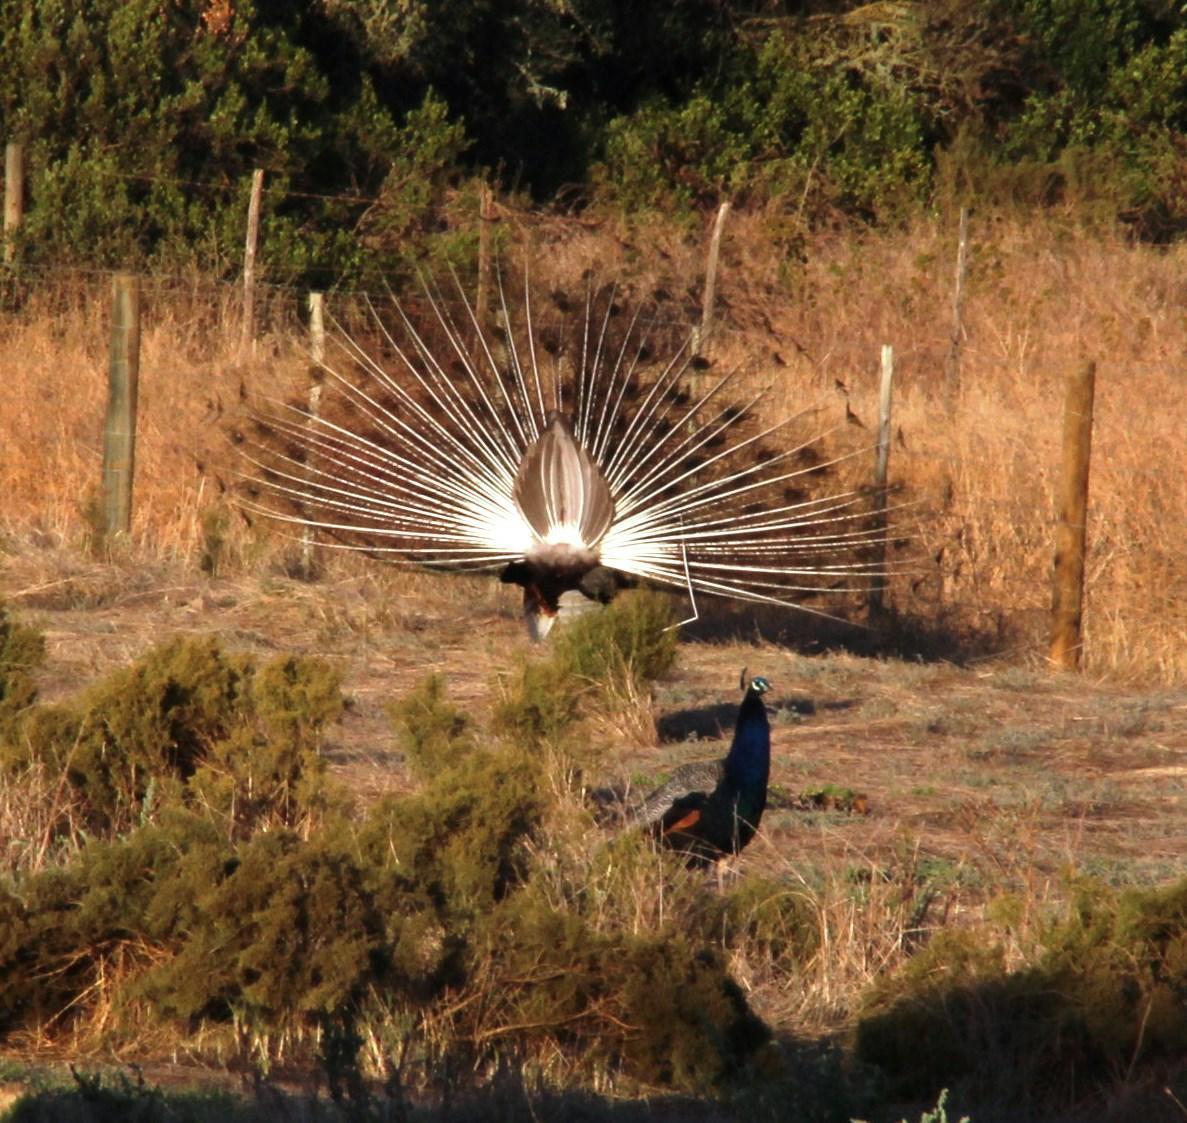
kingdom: Animalia
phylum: Chordata
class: Aves
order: Galliformes
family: Phasianidae
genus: Pavo
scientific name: Pavo cristatus
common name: Indian peafowl
